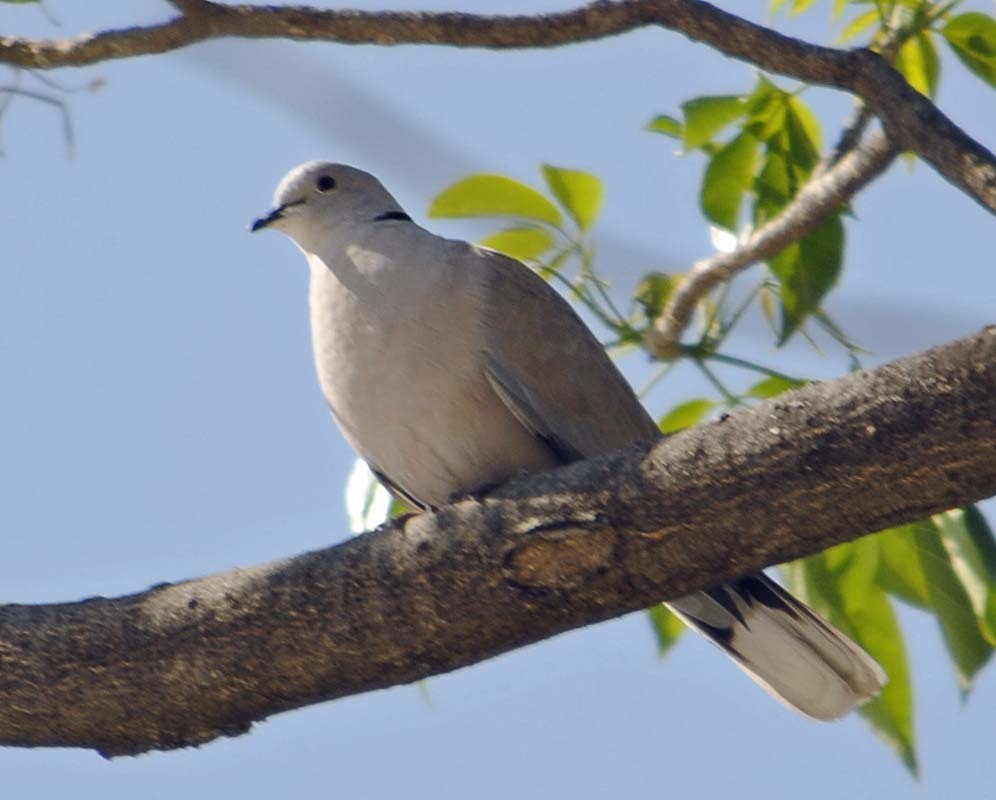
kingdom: Animalia
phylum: Chordata
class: Aves
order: Columbiformes
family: Columbidae
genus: Streptopelia
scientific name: Streptopelia decaocto
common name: Eurasian collared dove
